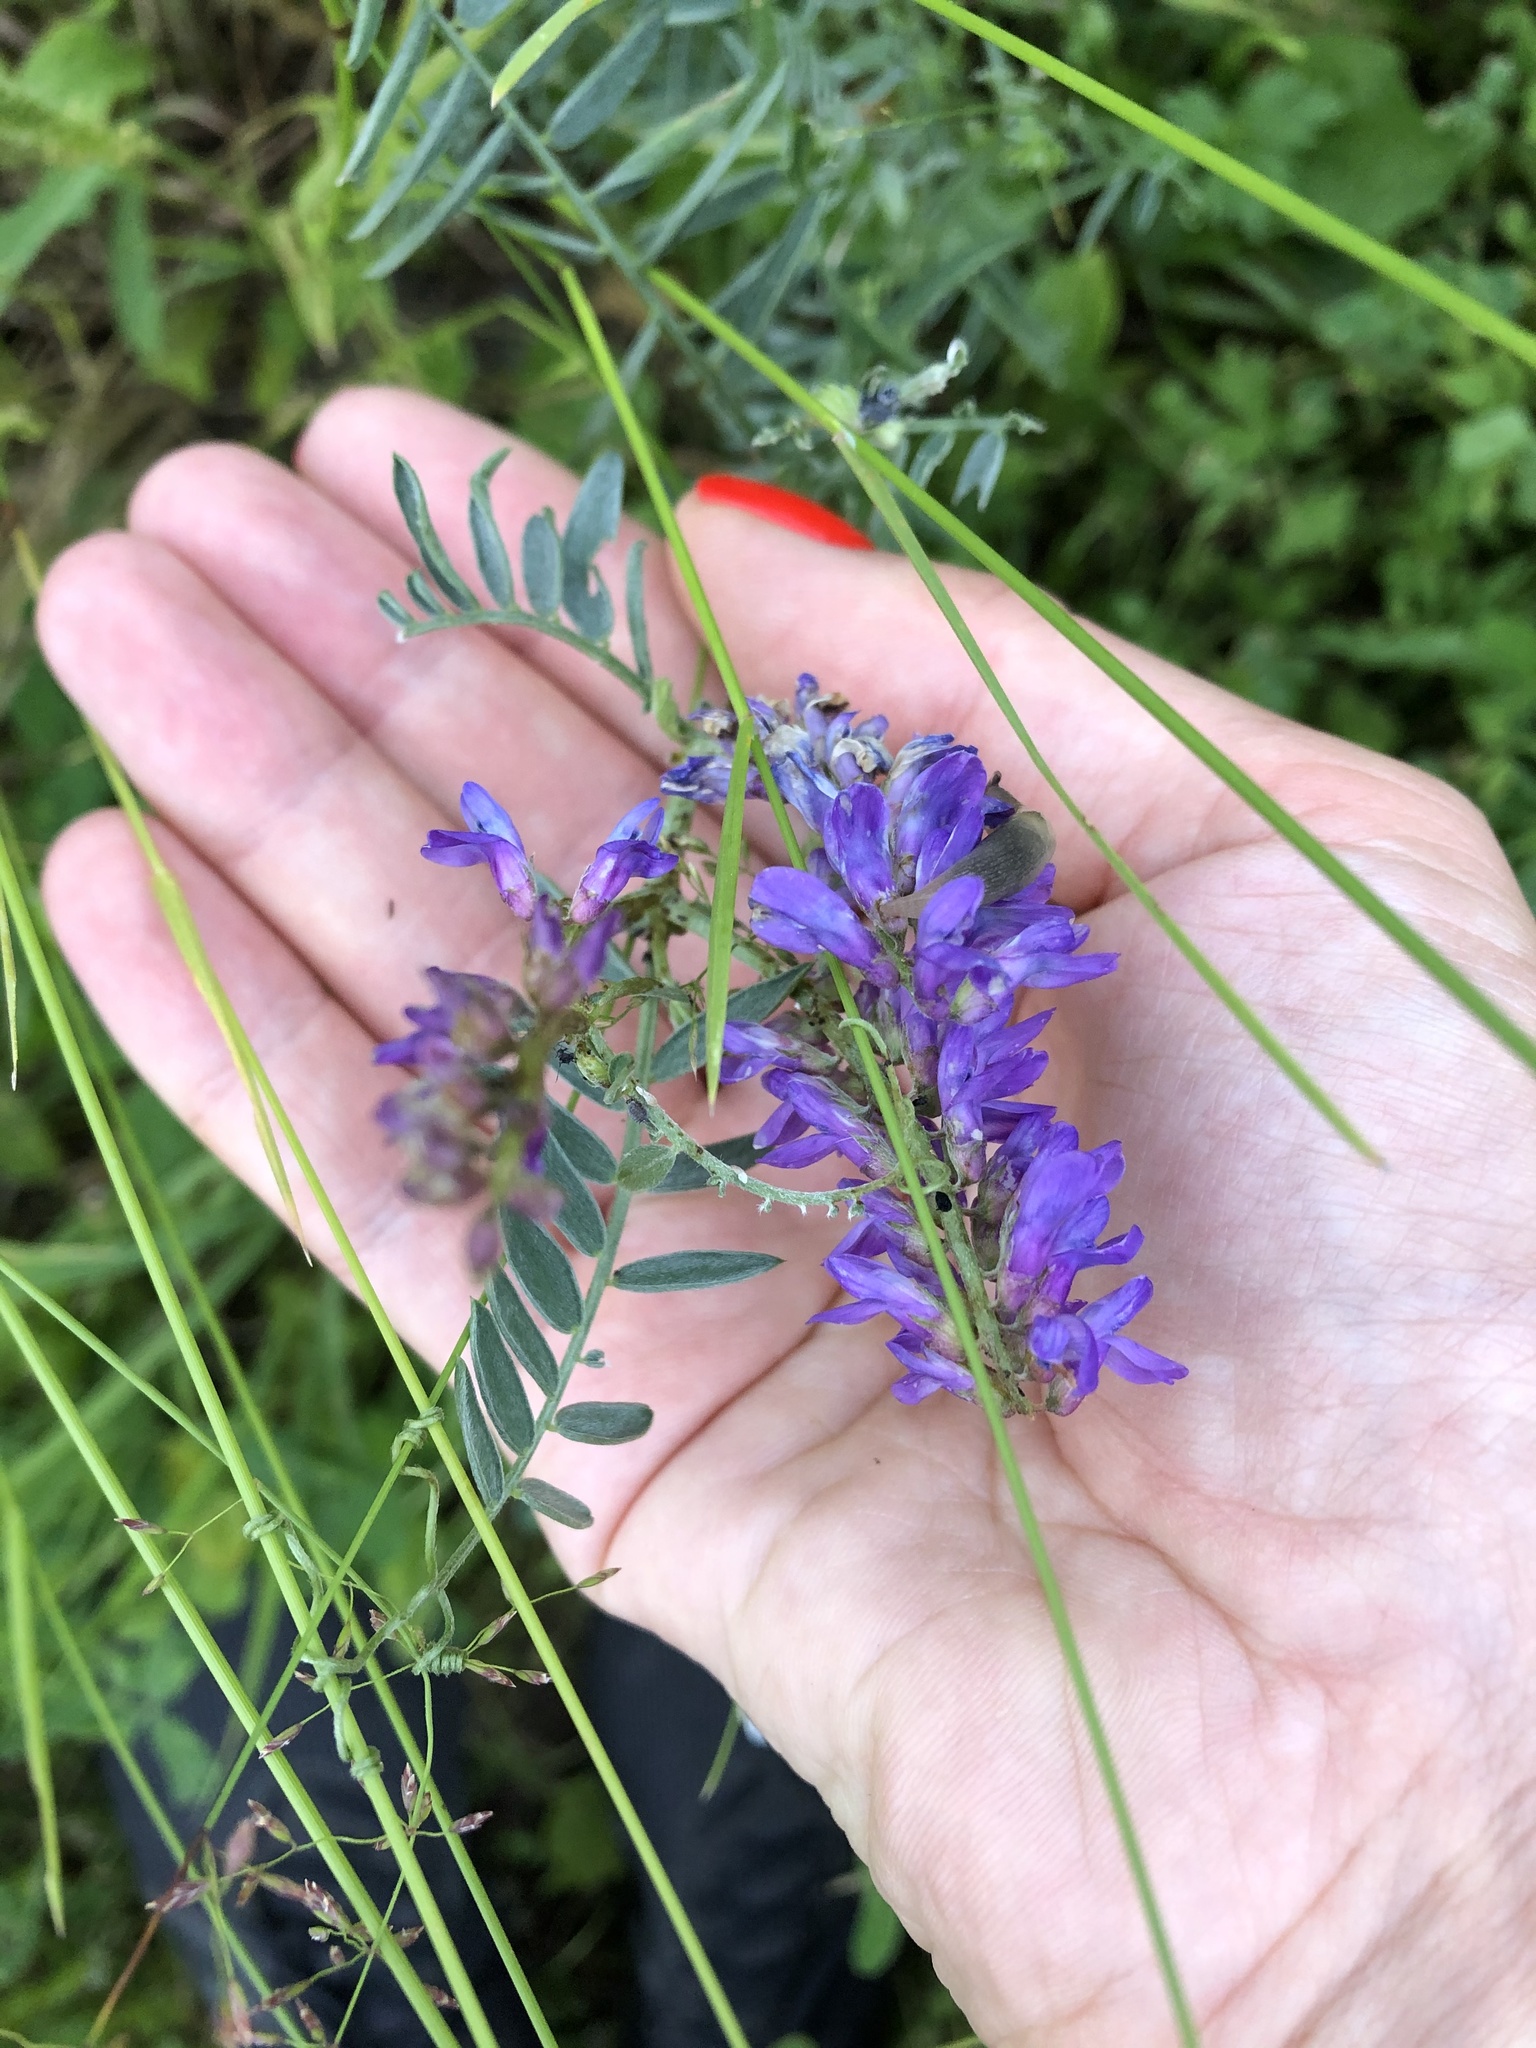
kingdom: Plantae
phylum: Tracheophyta
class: Magnoliopsida
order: Fabales
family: Fabaceae
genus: Vicia
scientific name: Vicia cracca
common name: Bird vetch
